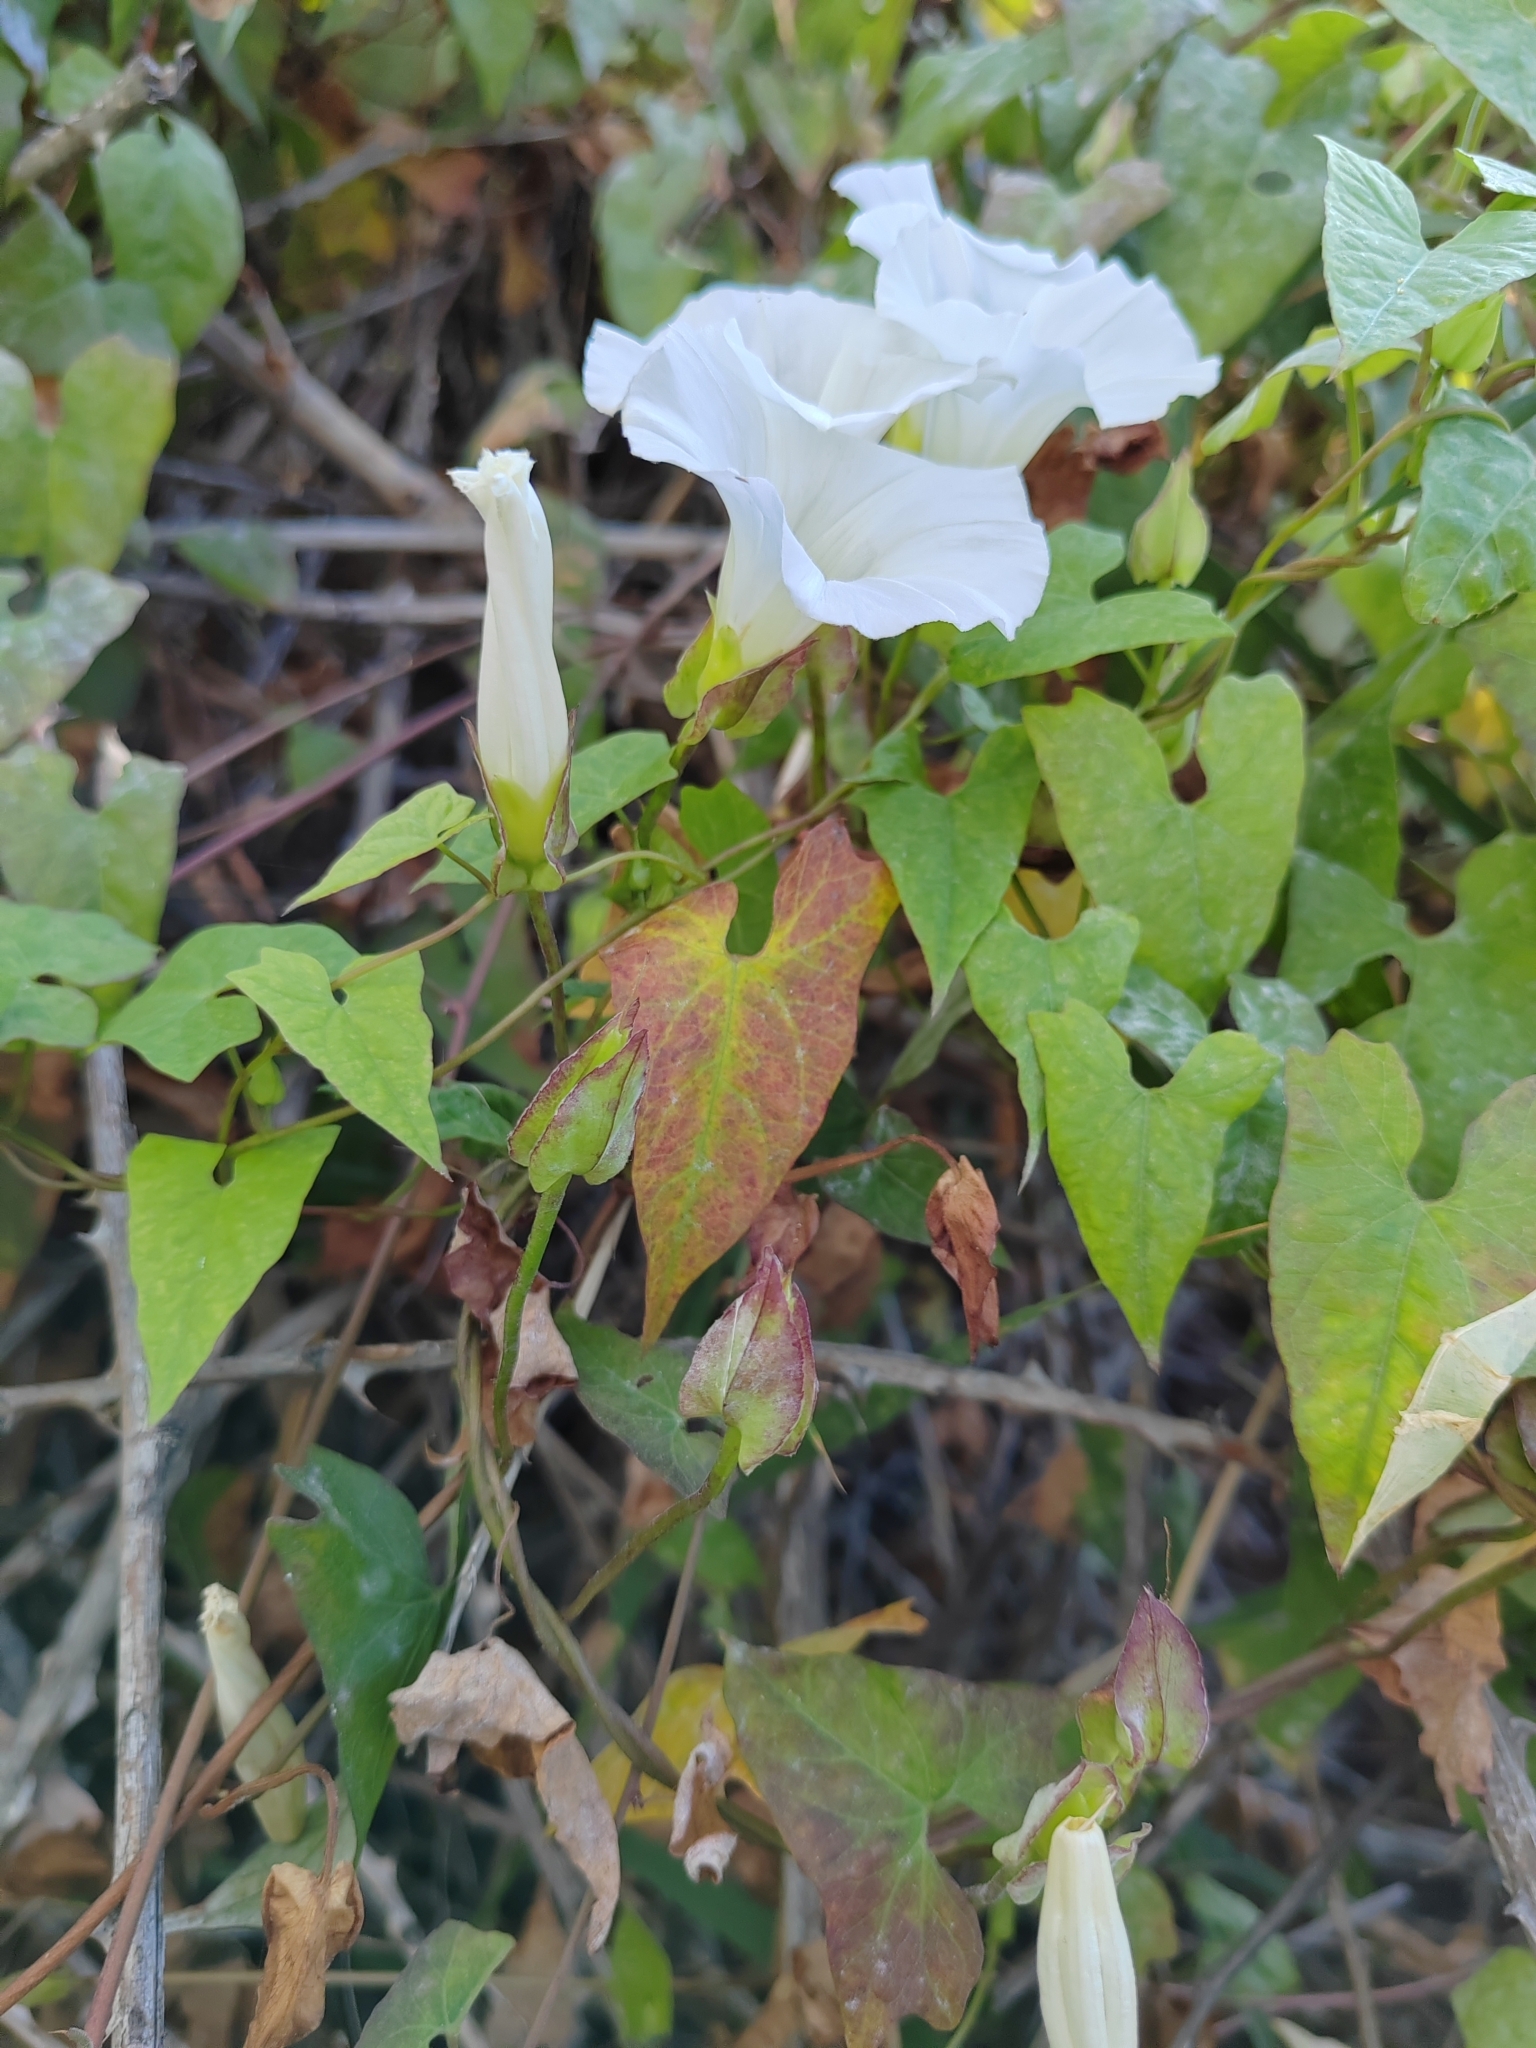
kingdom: Plantae
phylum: Tracheophyta
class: Magnoliopsida
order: Solanales
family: Convolvulaceae
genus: Calystegia
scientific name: Calystegia sepium
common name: Hedge bindweed
